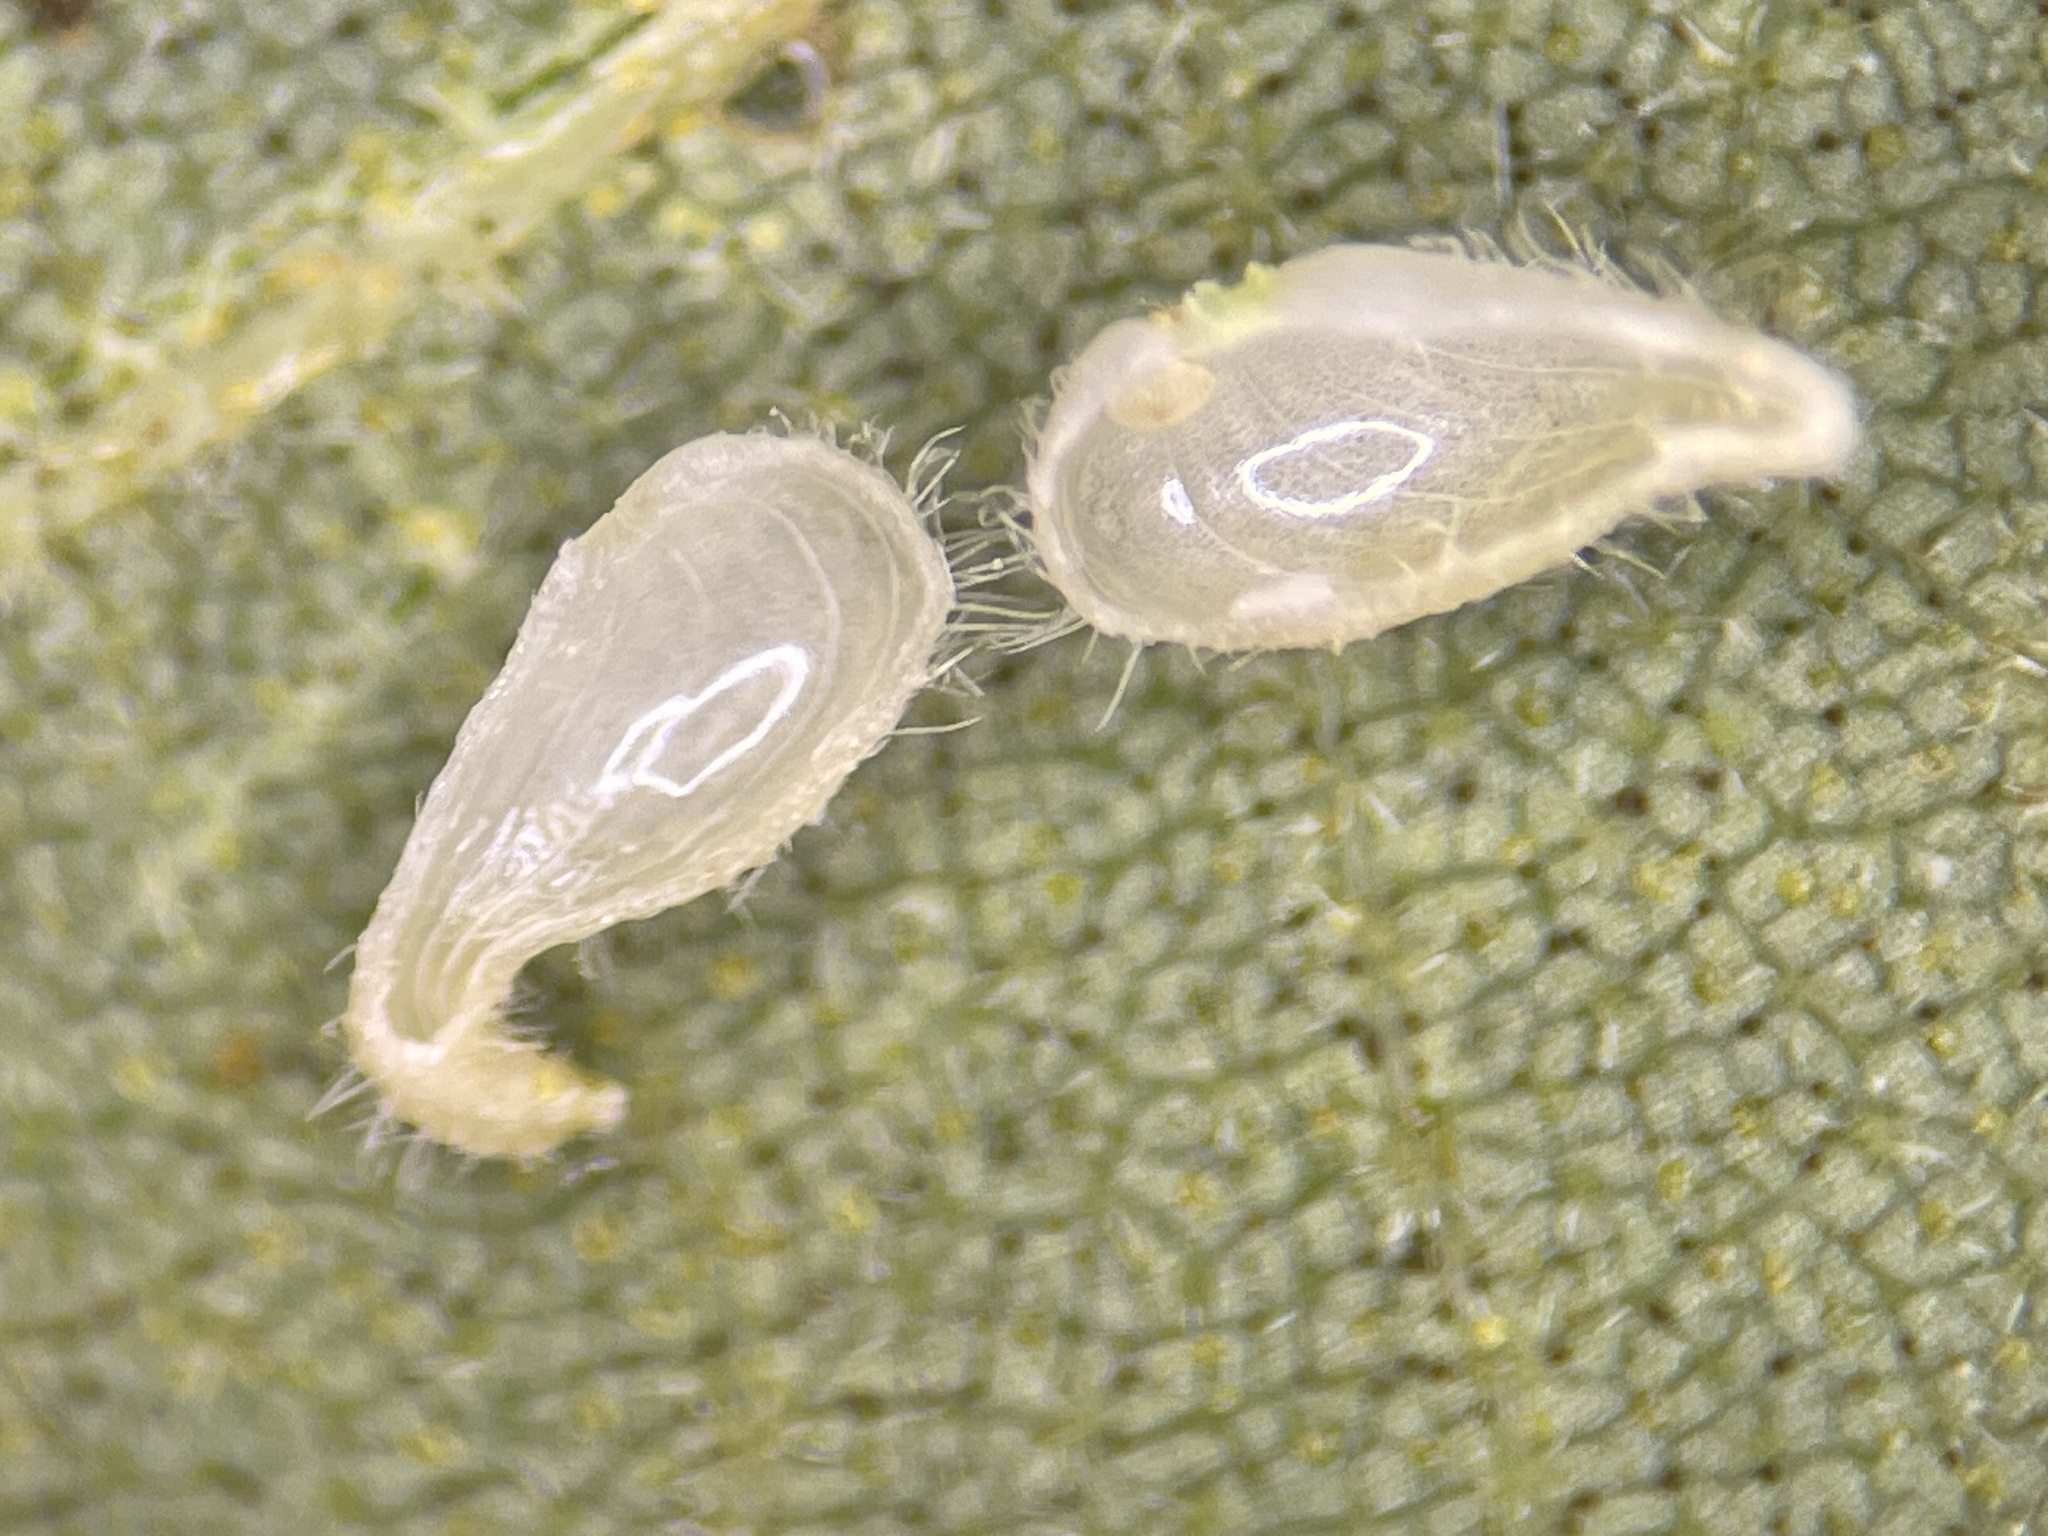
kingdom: Animalia
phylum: Arthropoda
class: Insecta
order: Diptera
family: Cecidomyiidae
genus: Caryomyia
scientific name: Caryomyia eumaris
